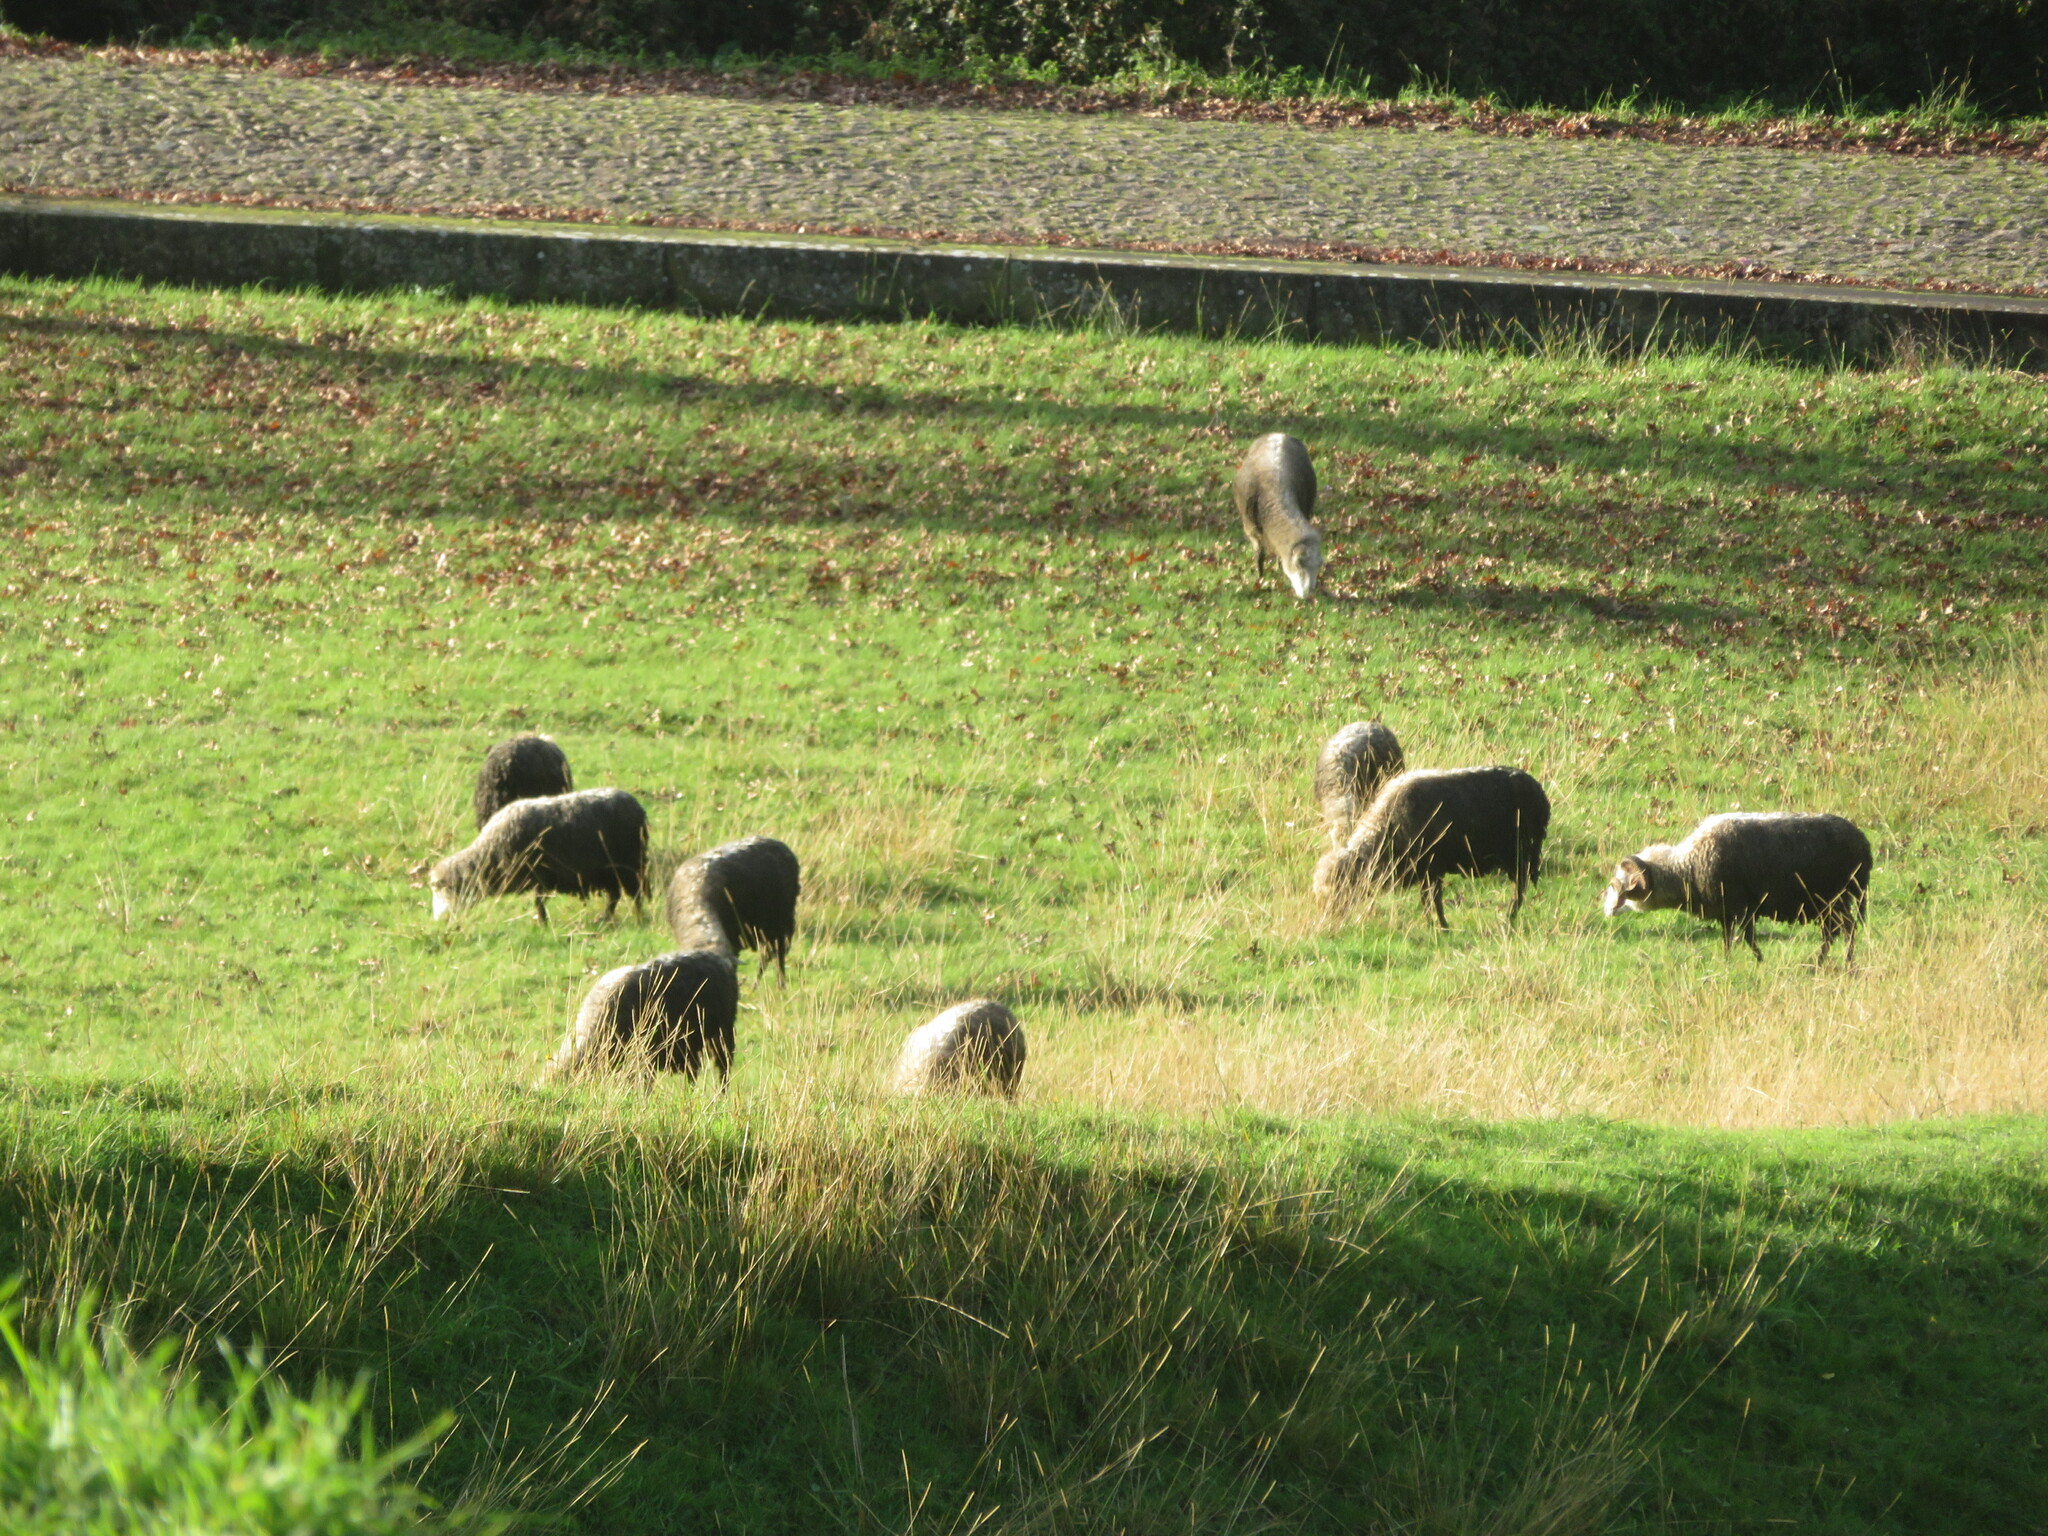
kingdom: Animalia
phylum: Chordata
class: Mammalia
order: Artiodactyla
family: Bovidae
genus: Ovis
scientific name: Ovis aries
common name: Domestic sheep
